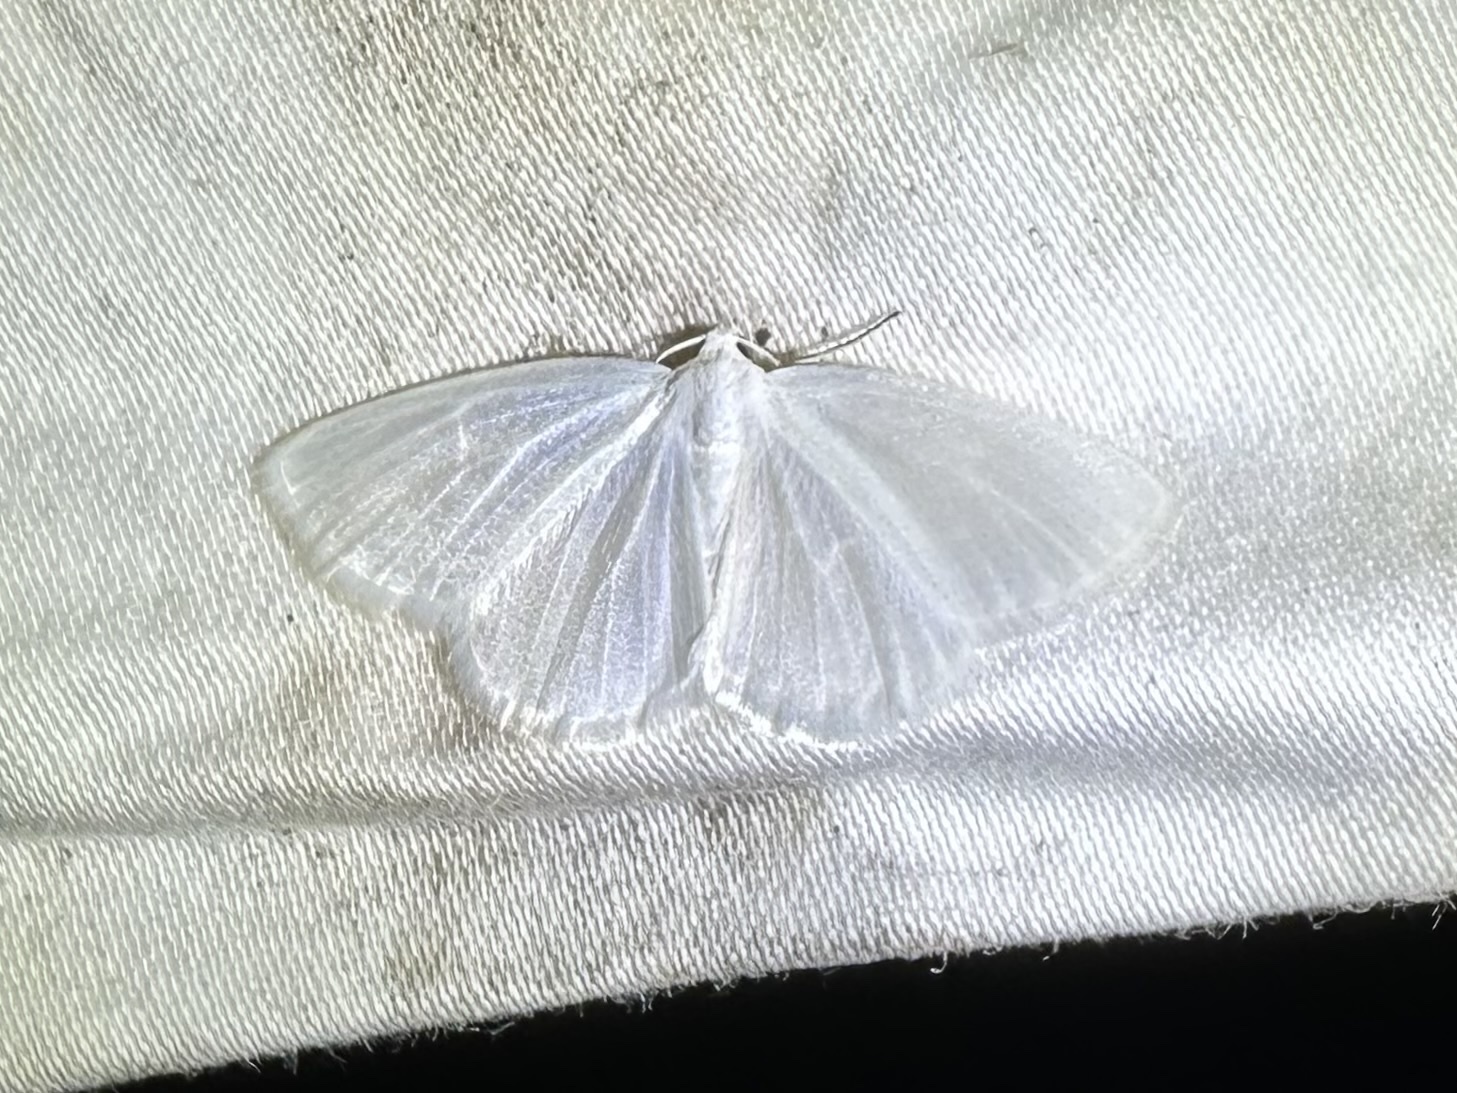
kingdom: Animalia
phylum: Arthropoda
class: Insecta
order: Lepidoptera
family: Geometridae
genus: Lomographa
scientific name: Lomographa vestaliata
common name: White spring moth
